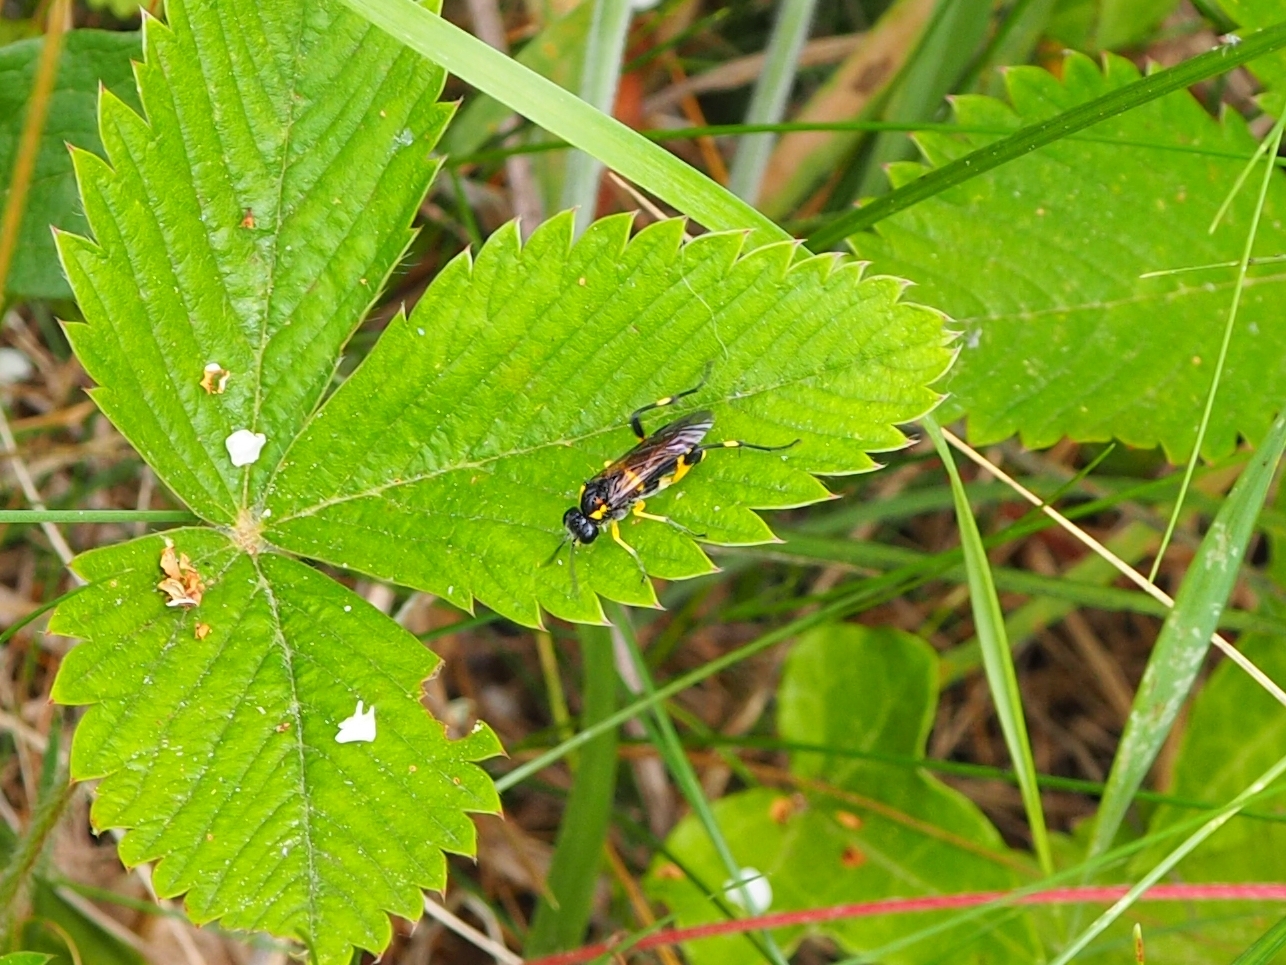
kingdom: Animalia
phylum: Arthropoda
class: Insecta
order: Hymenoptera
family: Tenthredinidae
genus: Macrophya
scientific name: Macrophya montana
